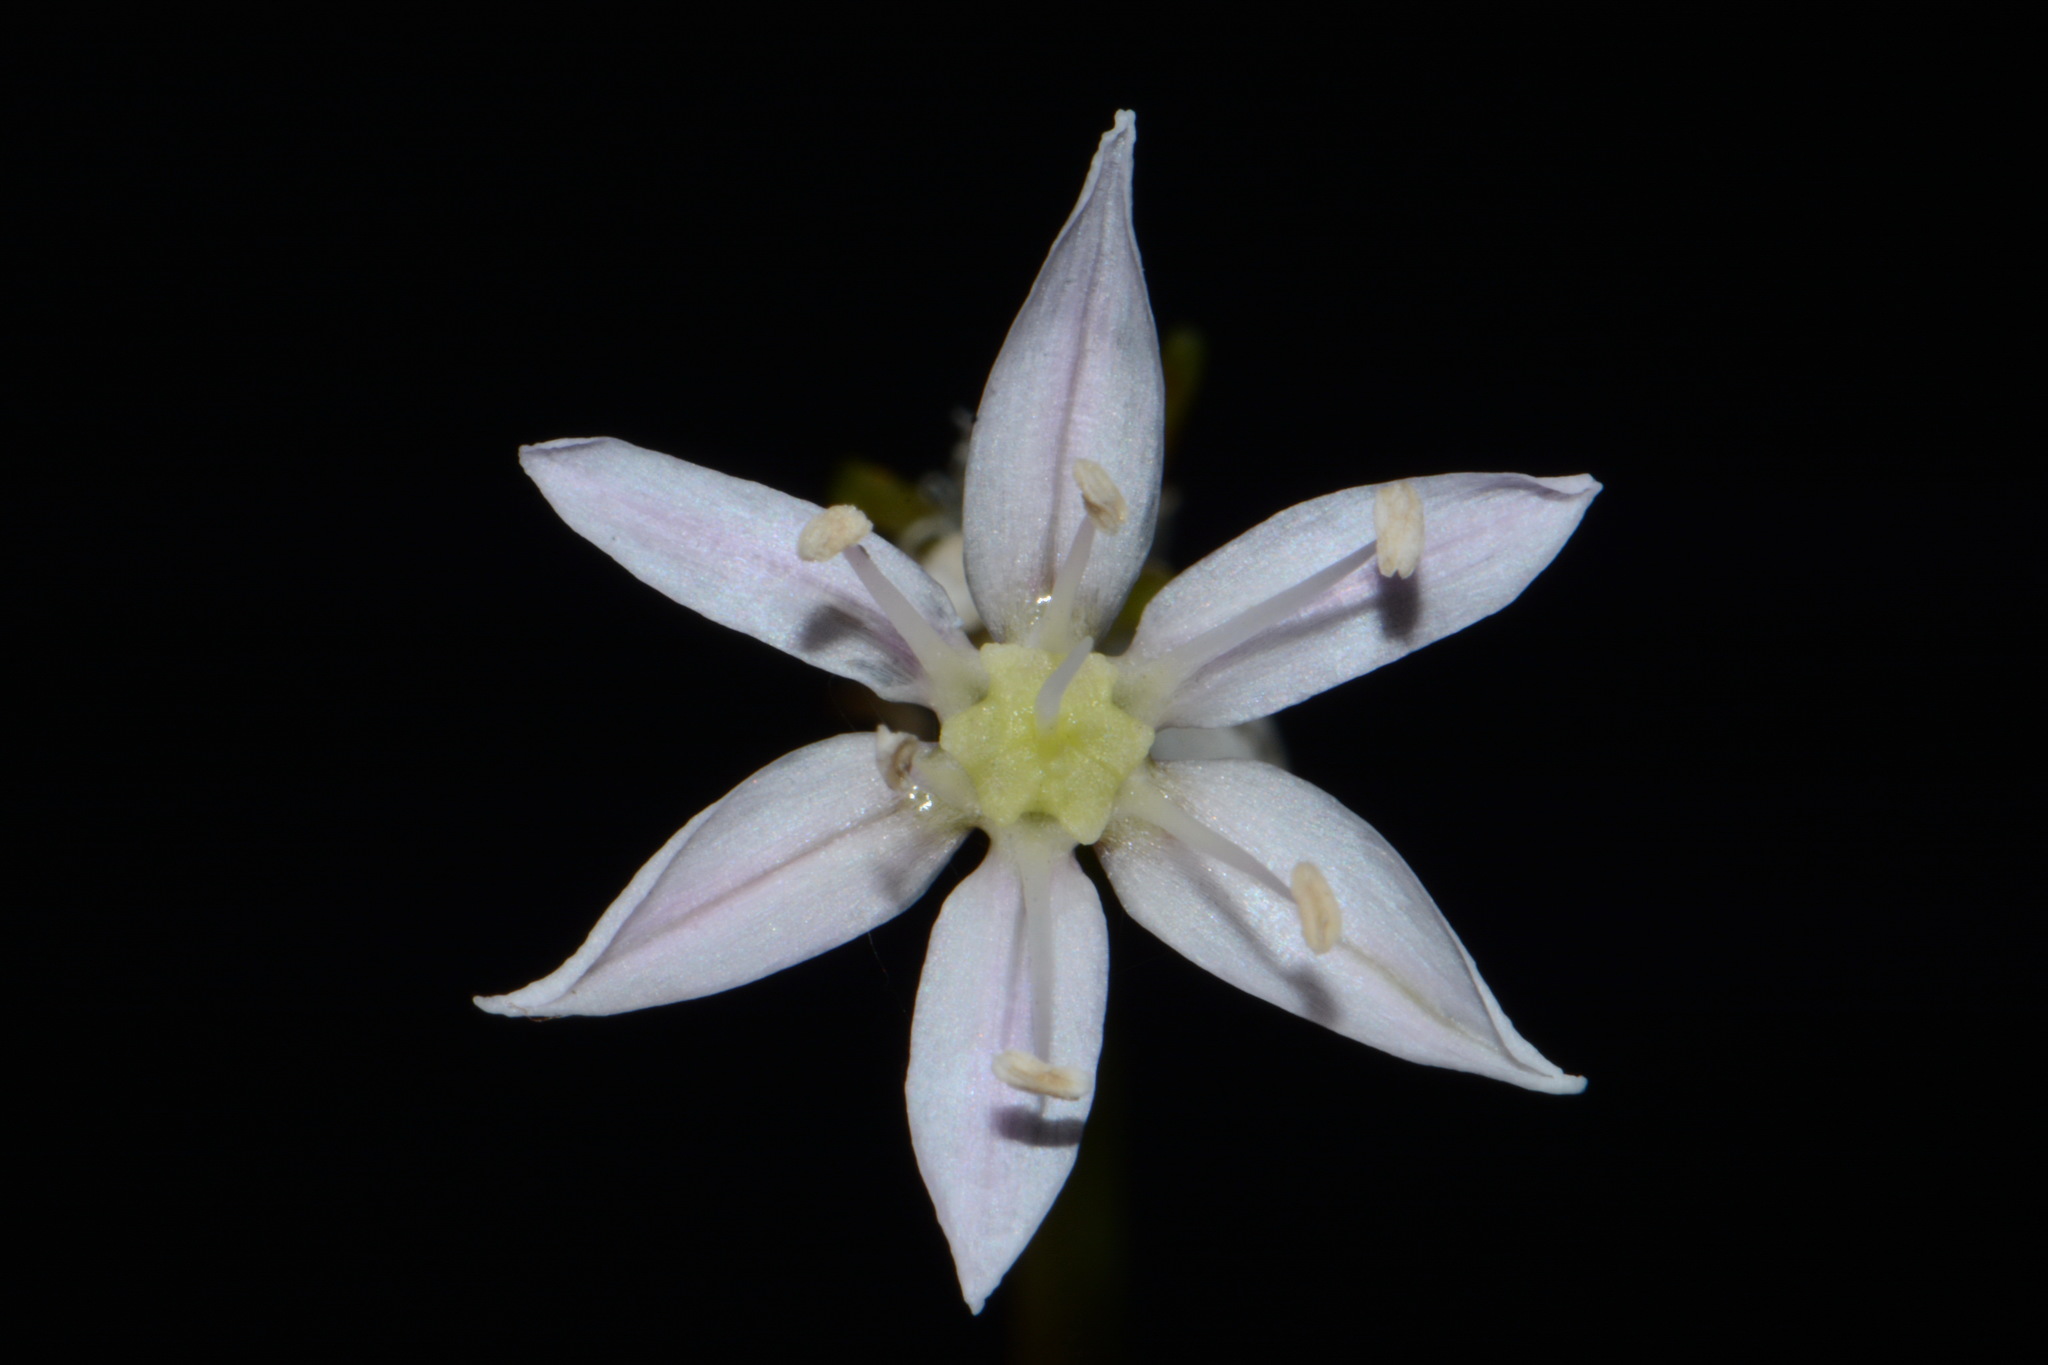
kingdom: Plantae
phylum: Tracheophyta
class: Liliopsida
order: Asparagales
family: Amaryllidaceae
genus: Allium
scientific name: Allium speculae
